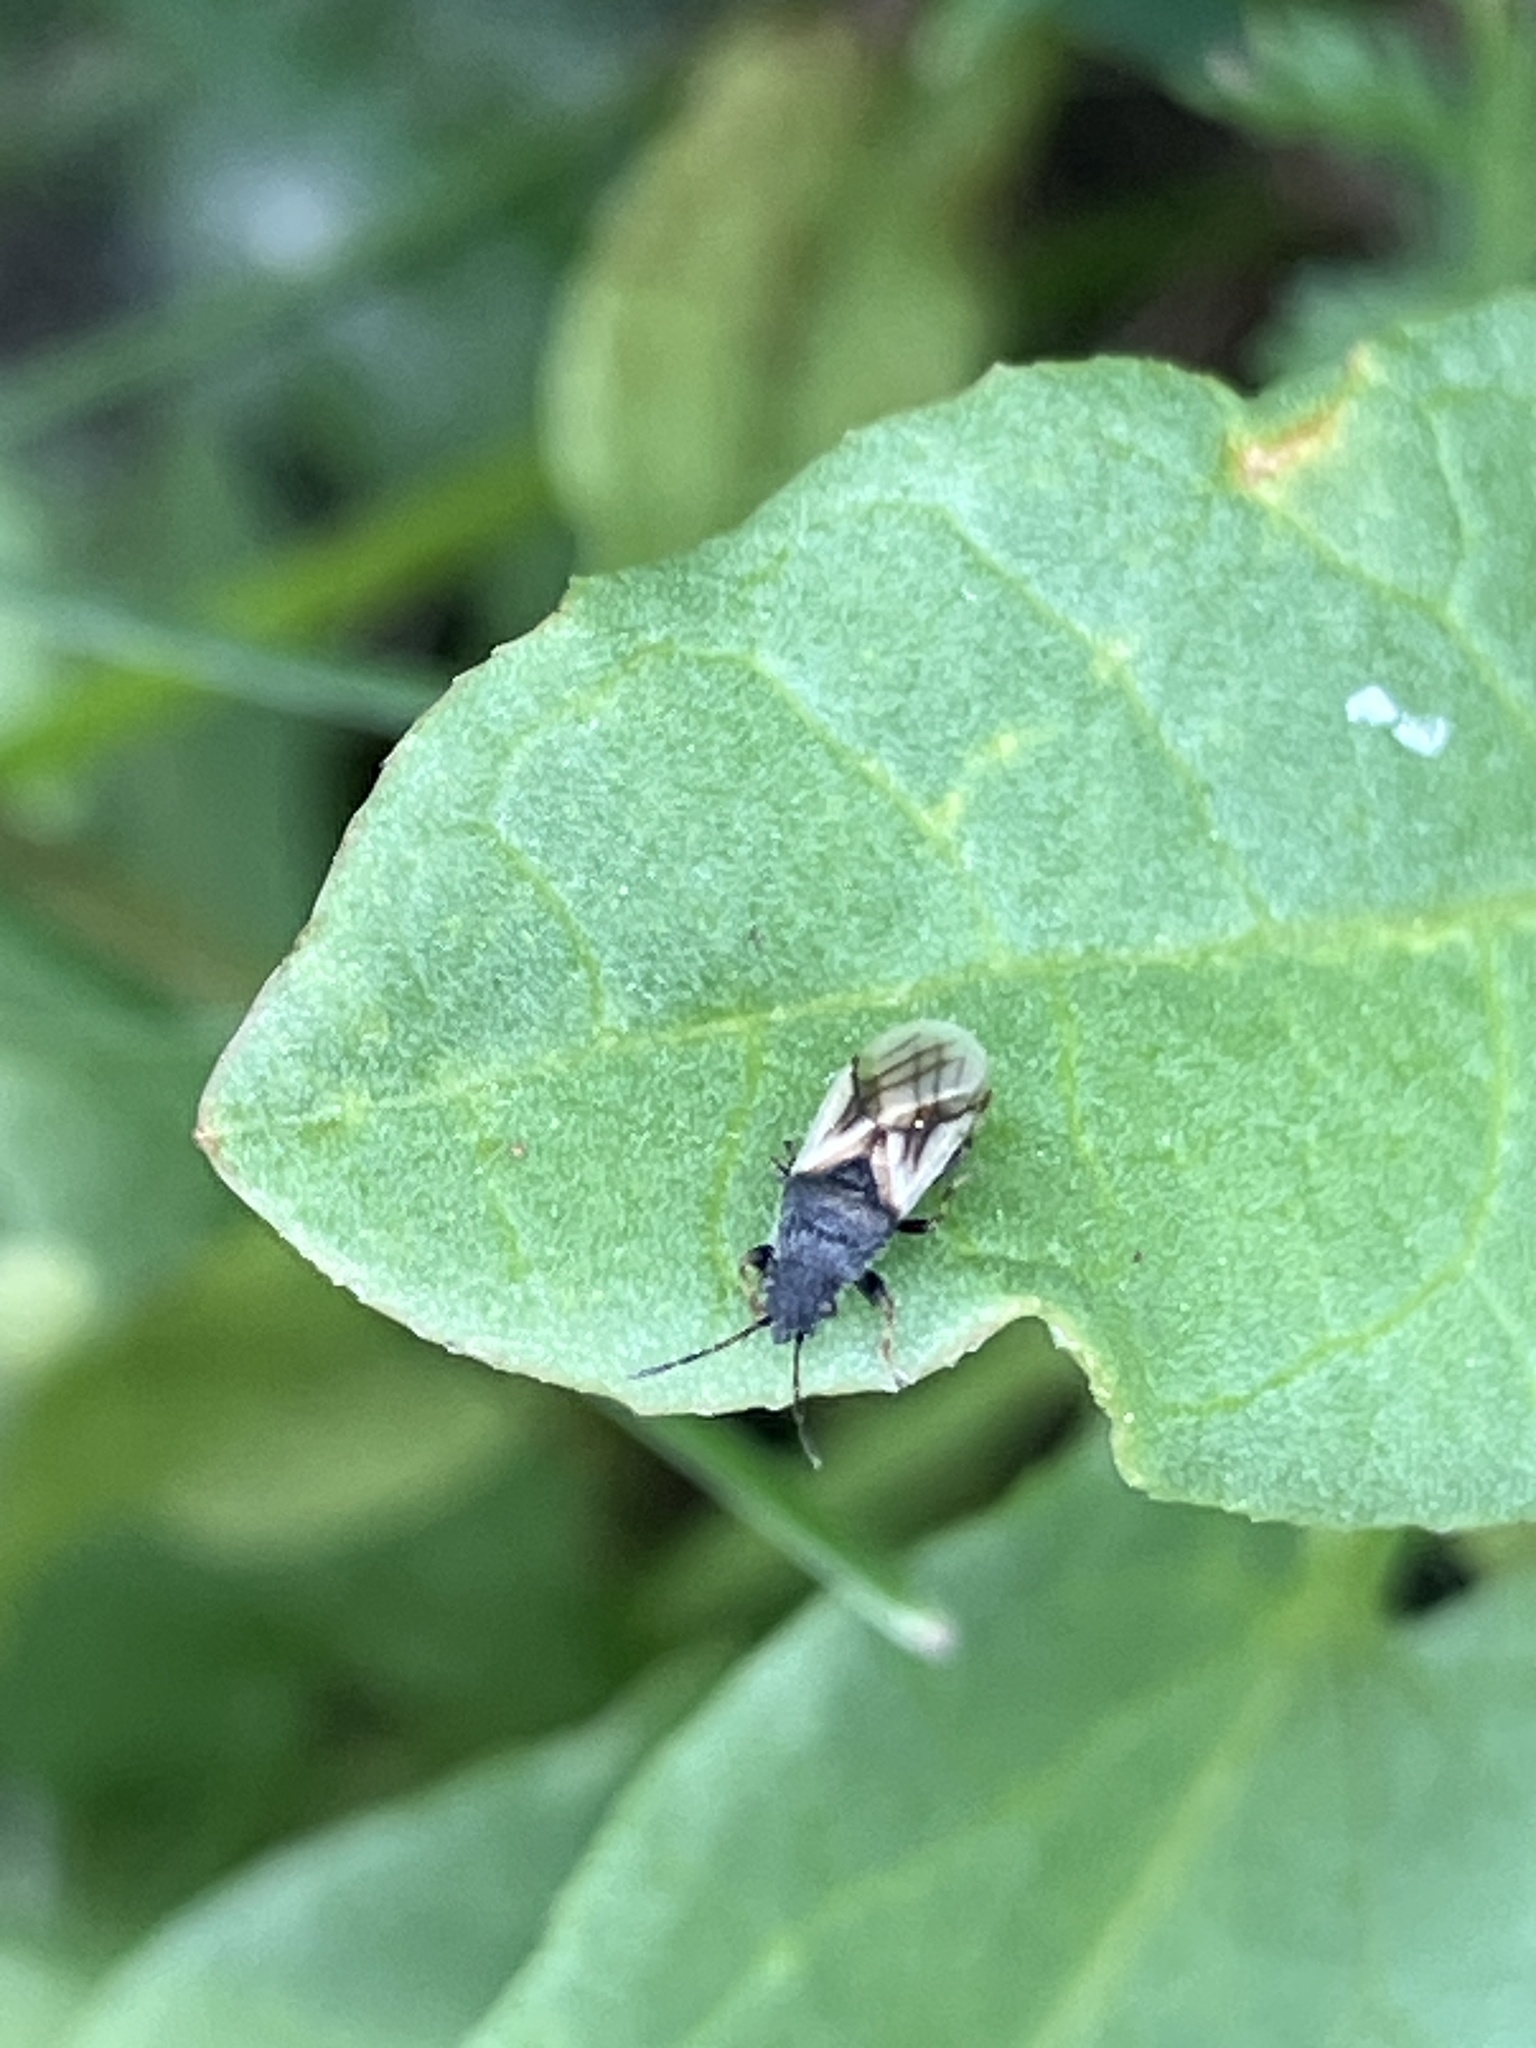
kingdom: Animalia
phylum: Arthropoda
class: Insecta
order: Hemiptera
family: Oxycarenidae
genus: Metopoplax
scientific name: Metopoplax origani
